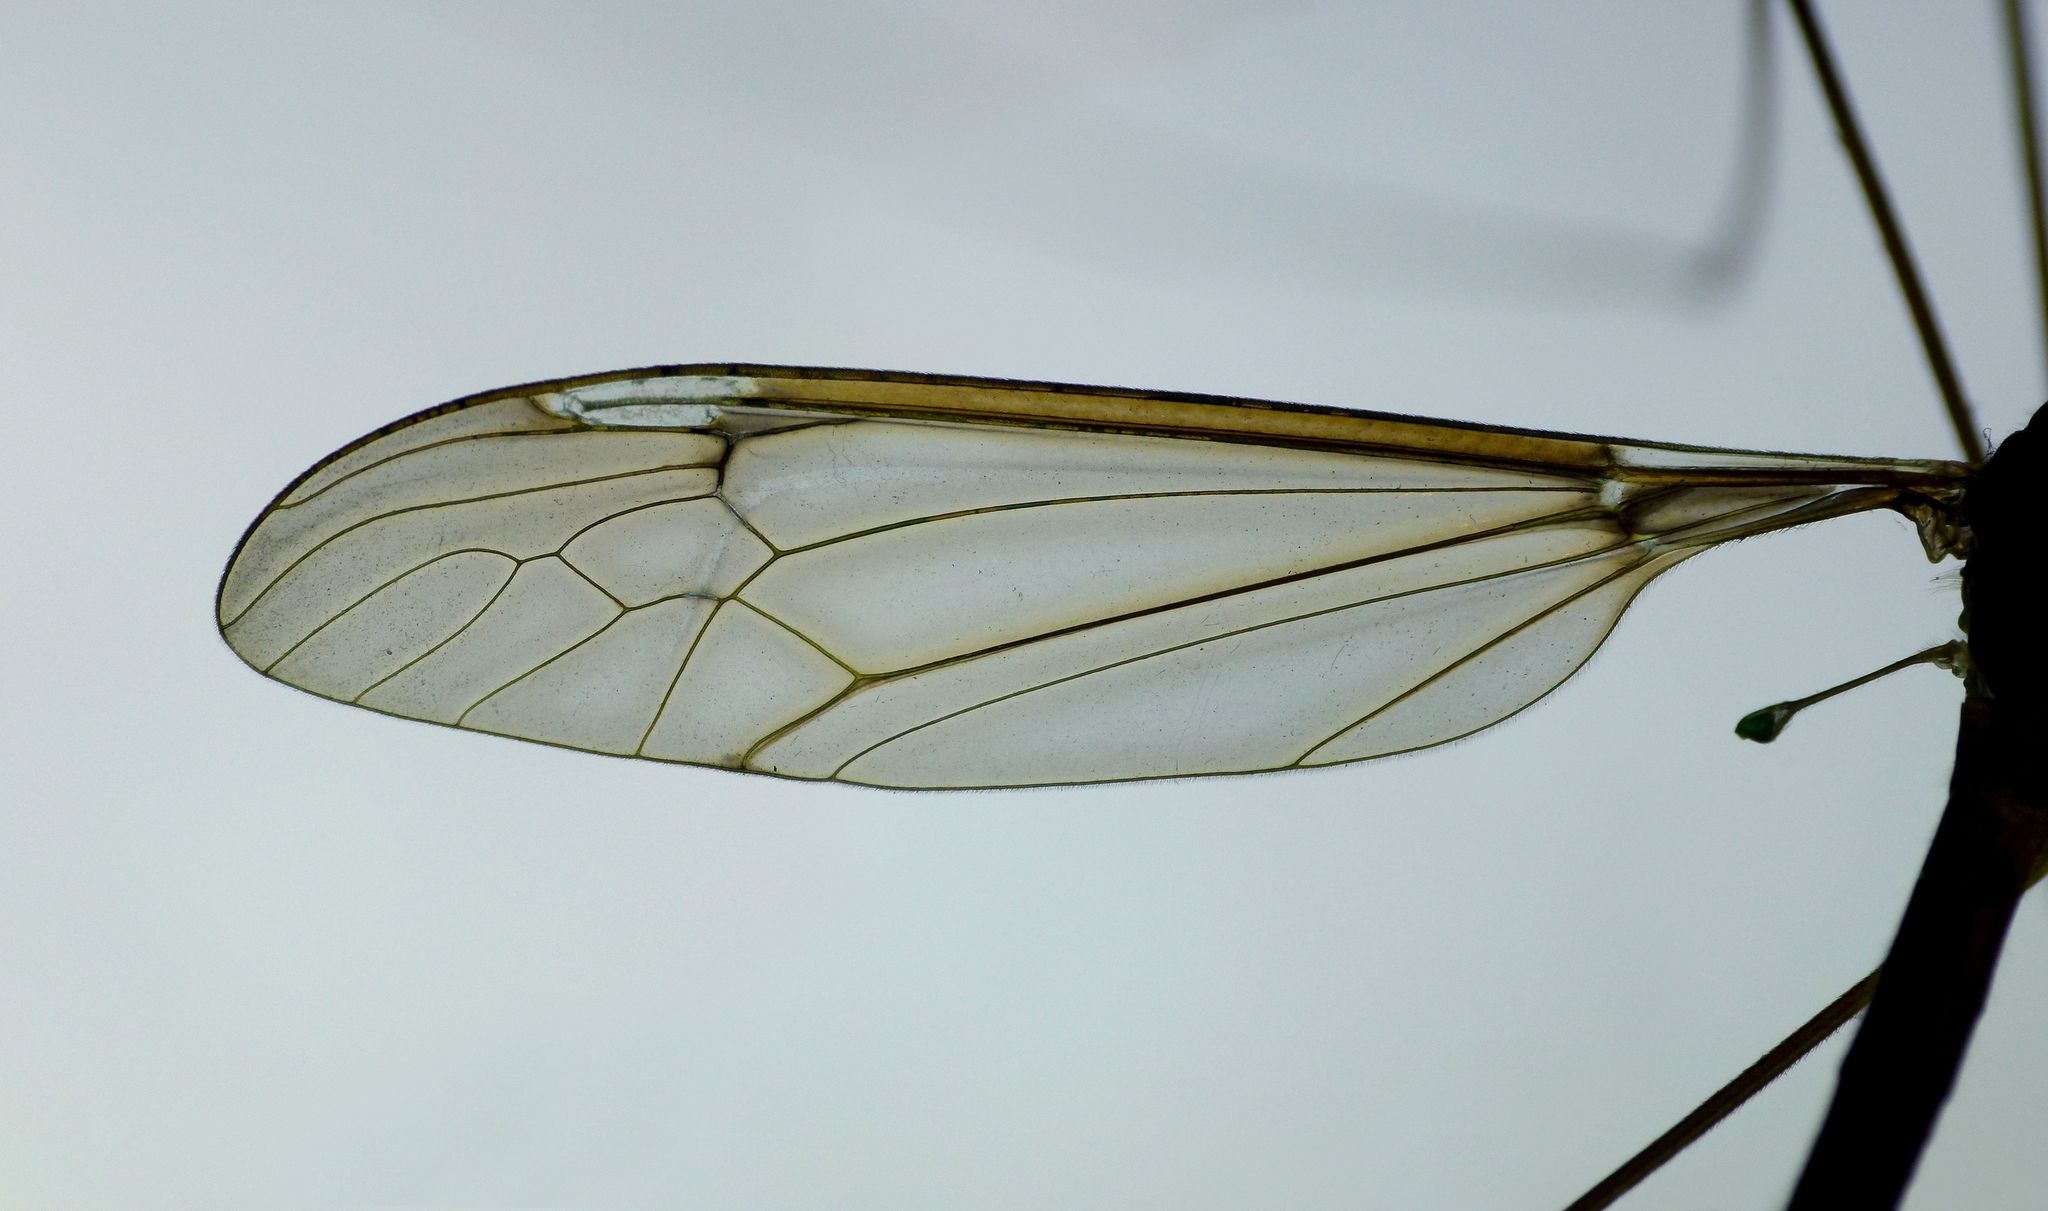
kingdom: Animalia
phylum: Arthropoda
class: Insecta
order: Diptera
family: Tipulidae
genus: Leptotarsus
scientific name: Leptotarsus albistigma
